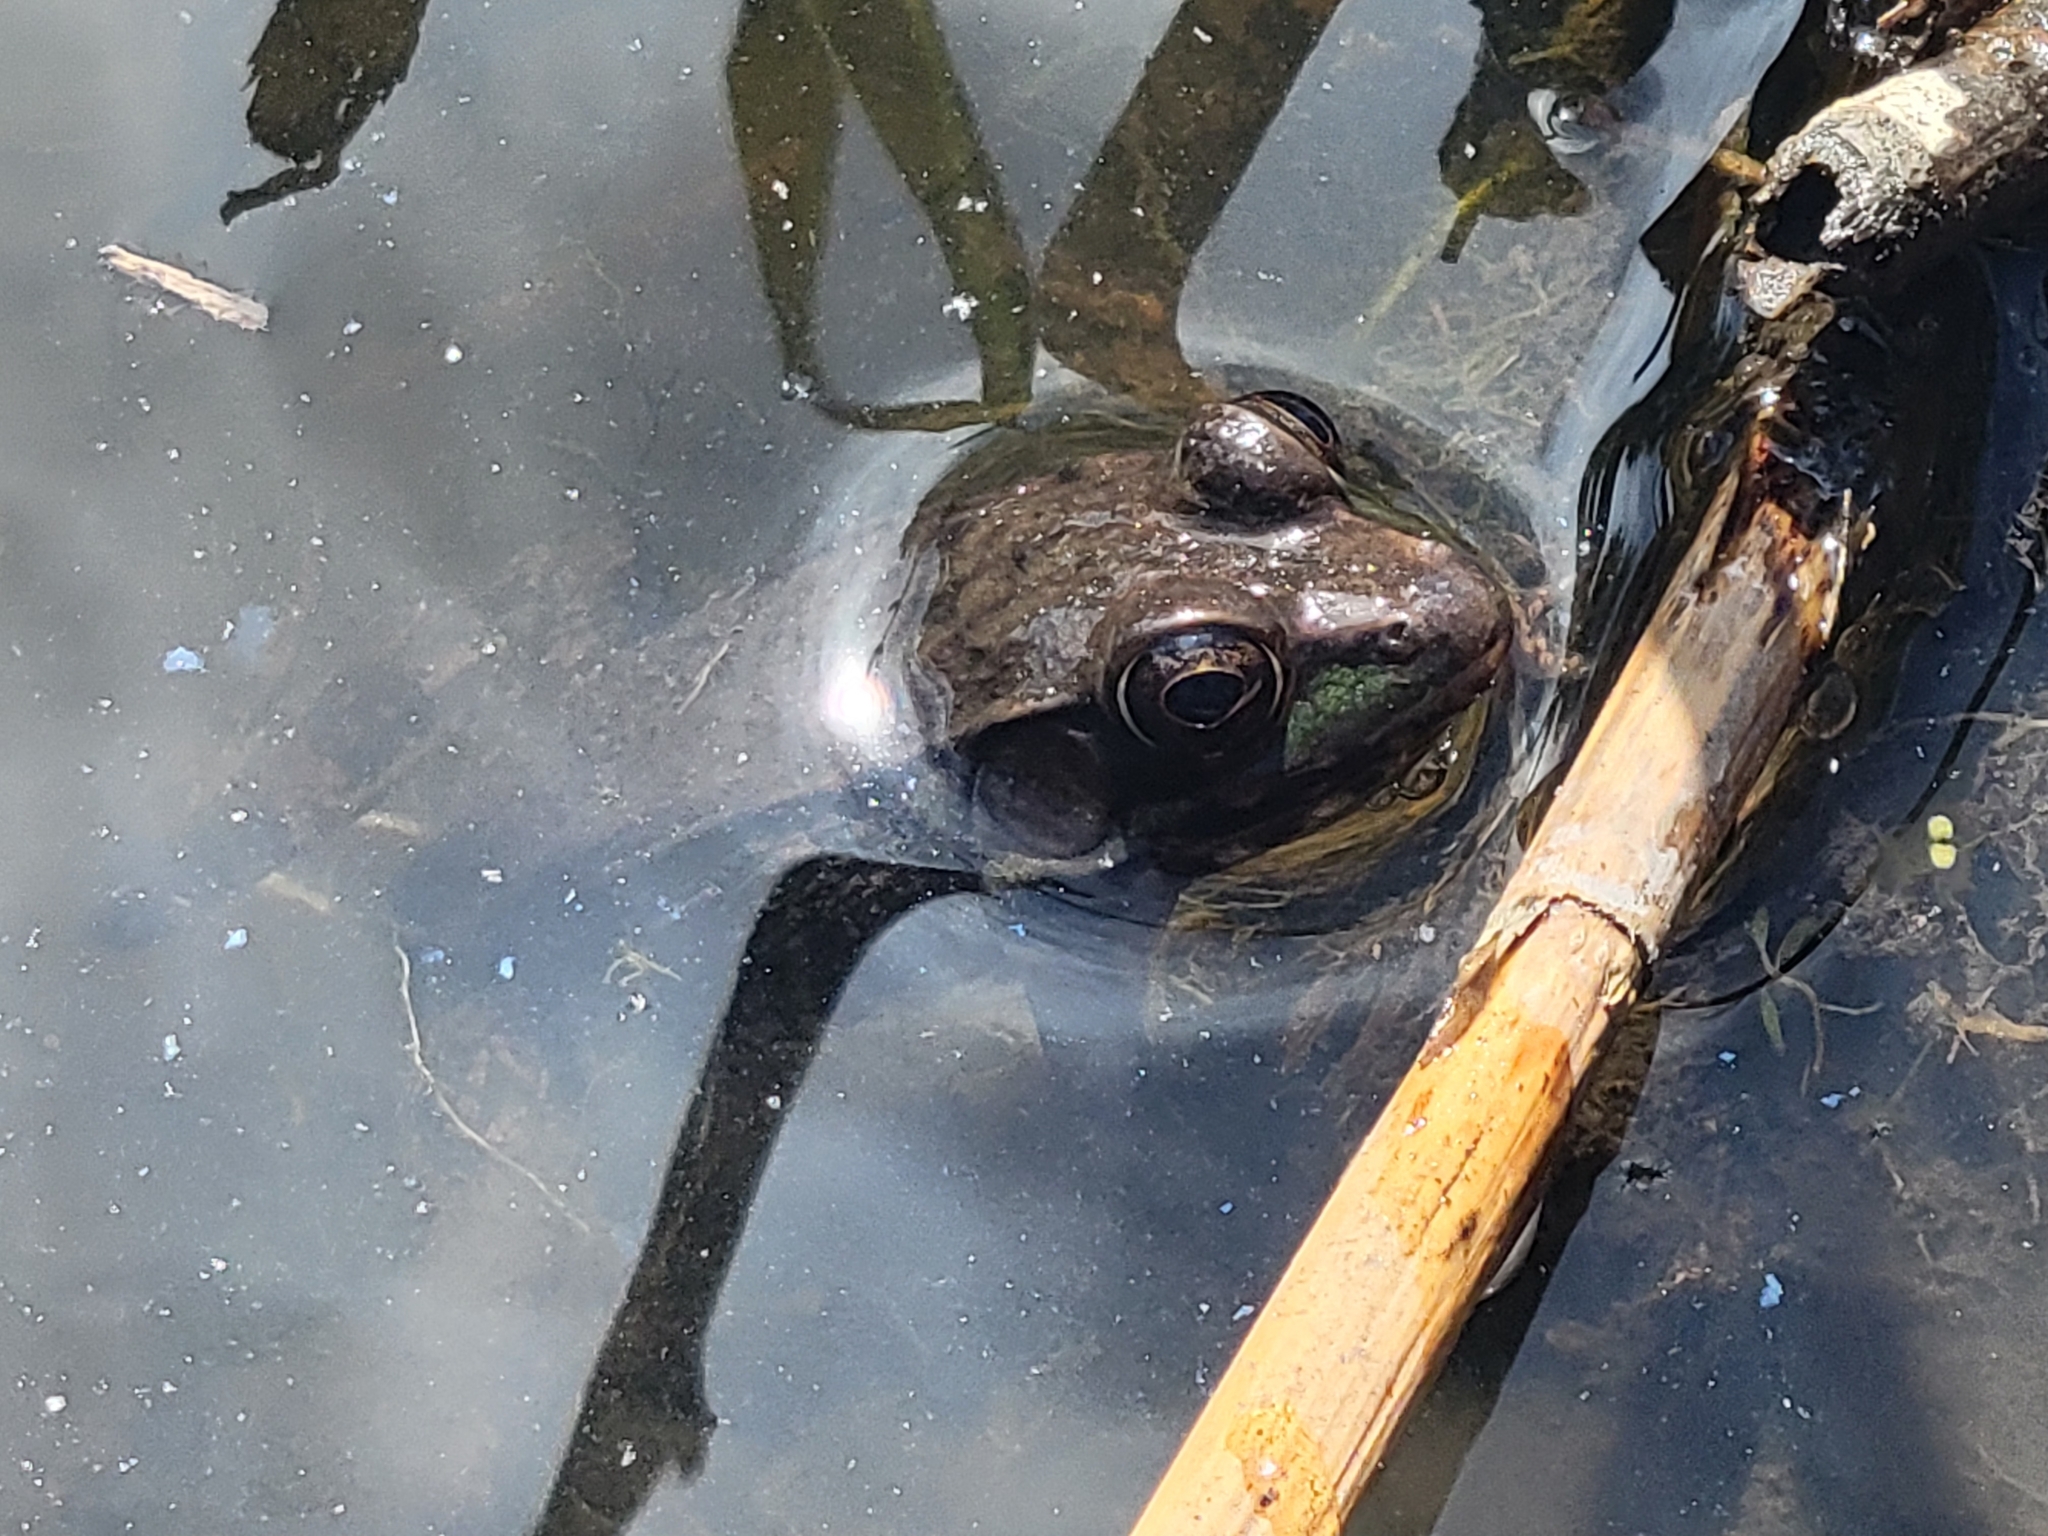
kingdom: Animalia
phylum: Chordata
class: Amphibia
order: Anura
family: Ranidae
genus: Lithobates
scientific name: Lithobates clamitans
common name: Green frog
